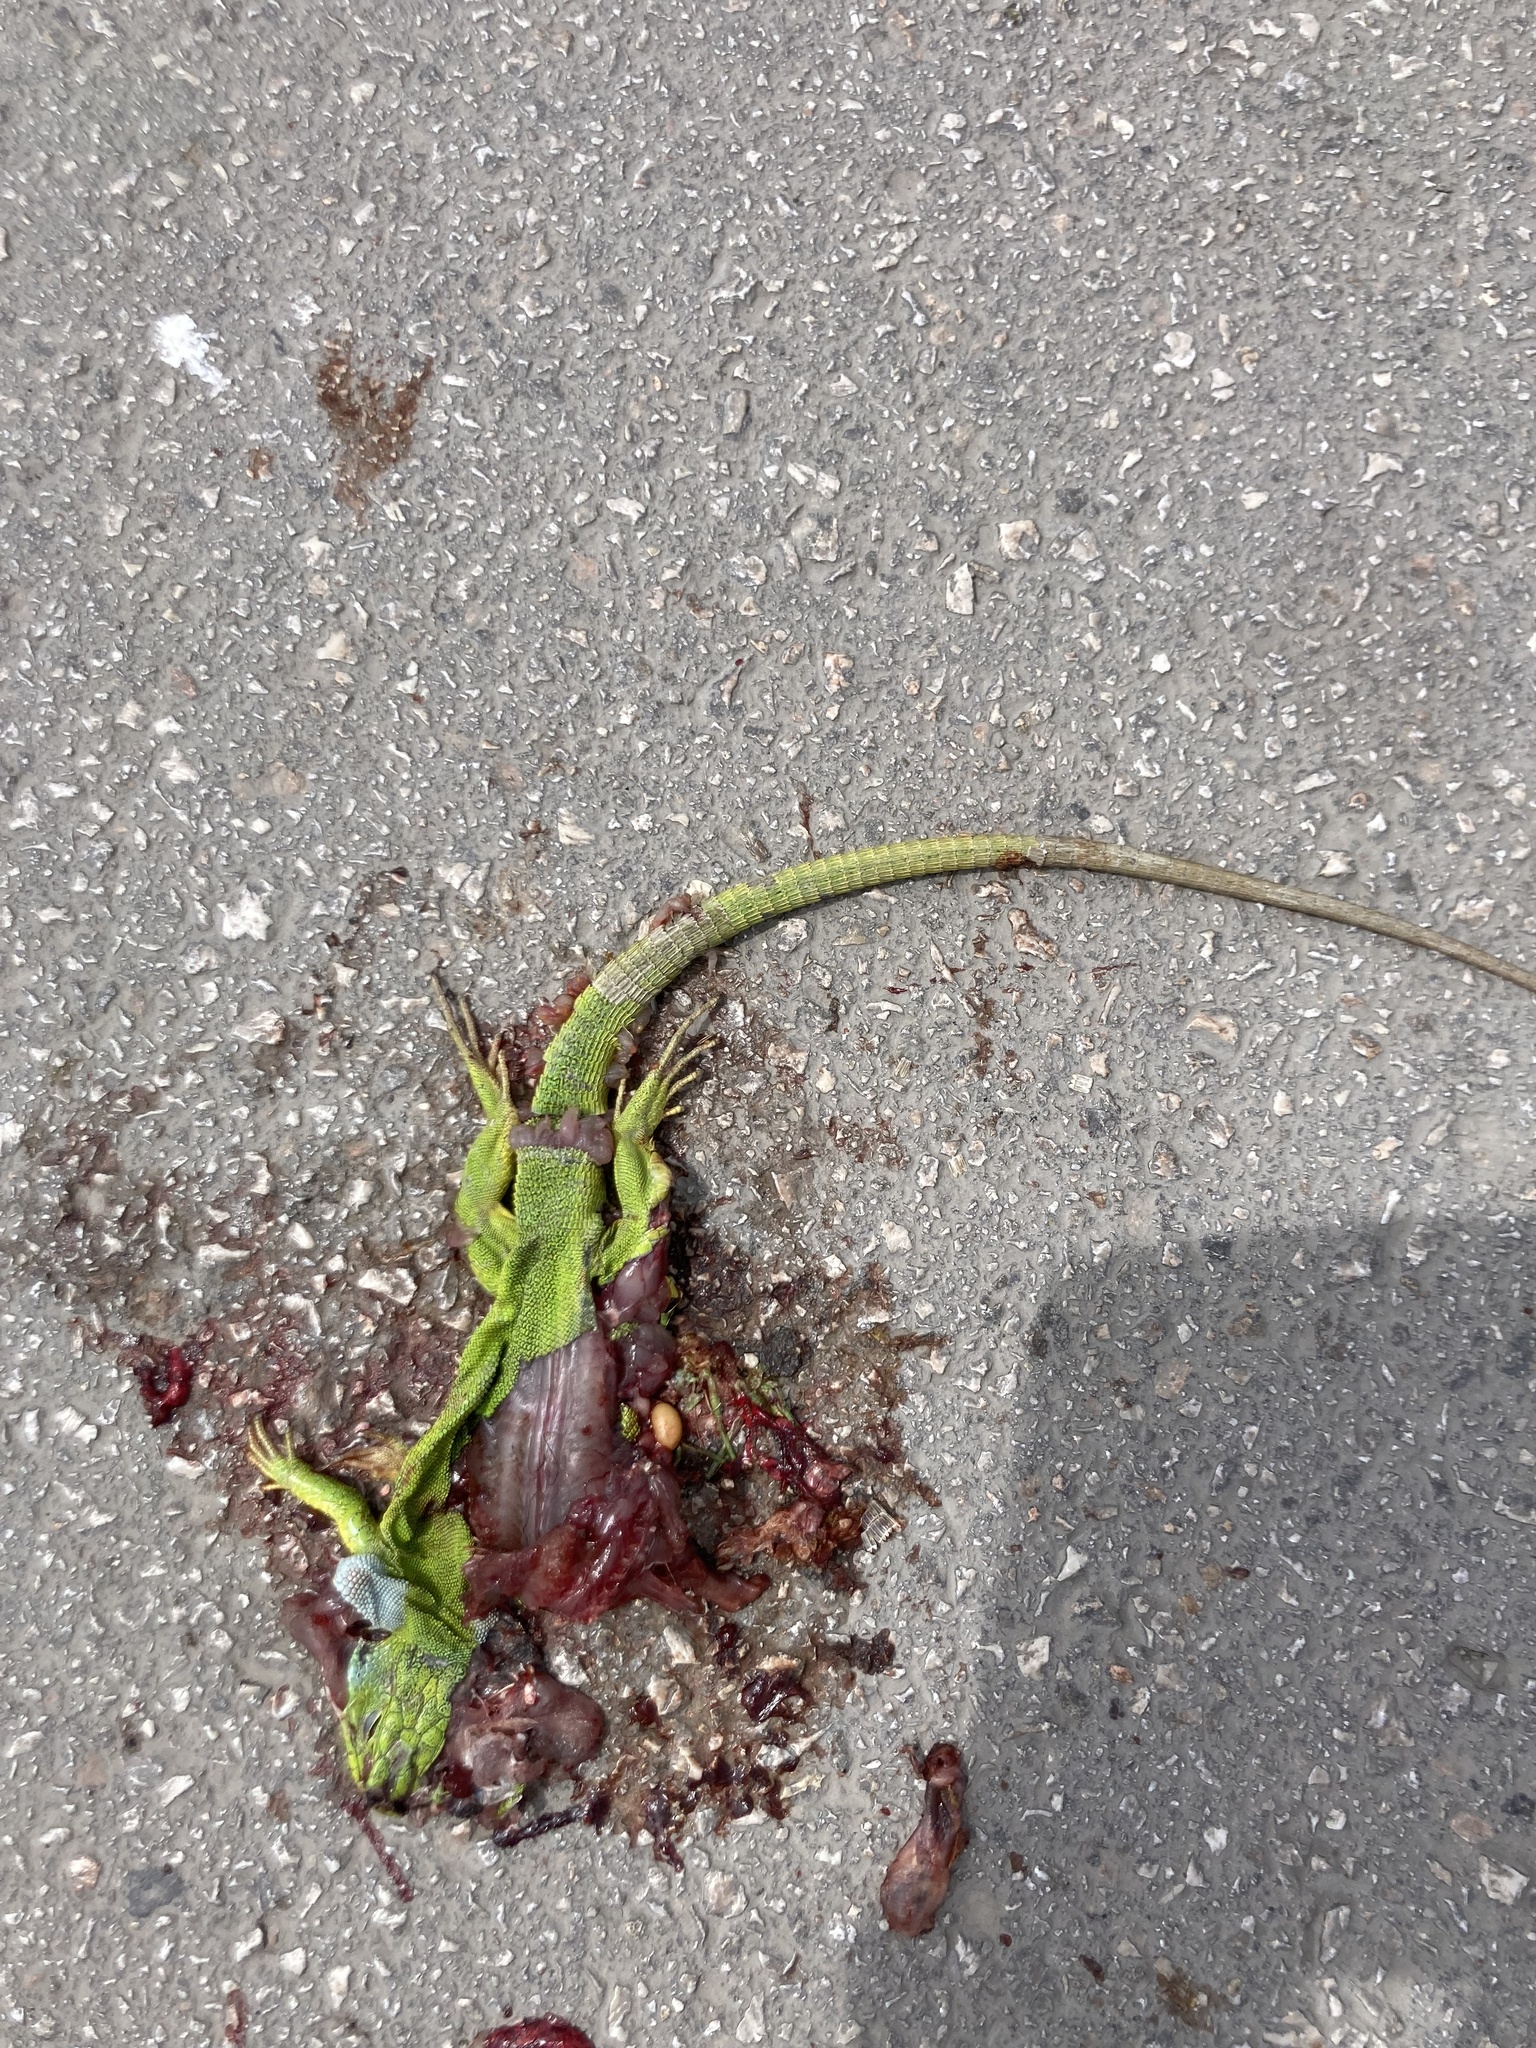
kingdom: Animalia
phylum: Chordata
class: Squamata
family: Lacertidae
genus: Lacerta
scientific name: Lacerta diplochondrodes
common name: Rhodos green lizard
